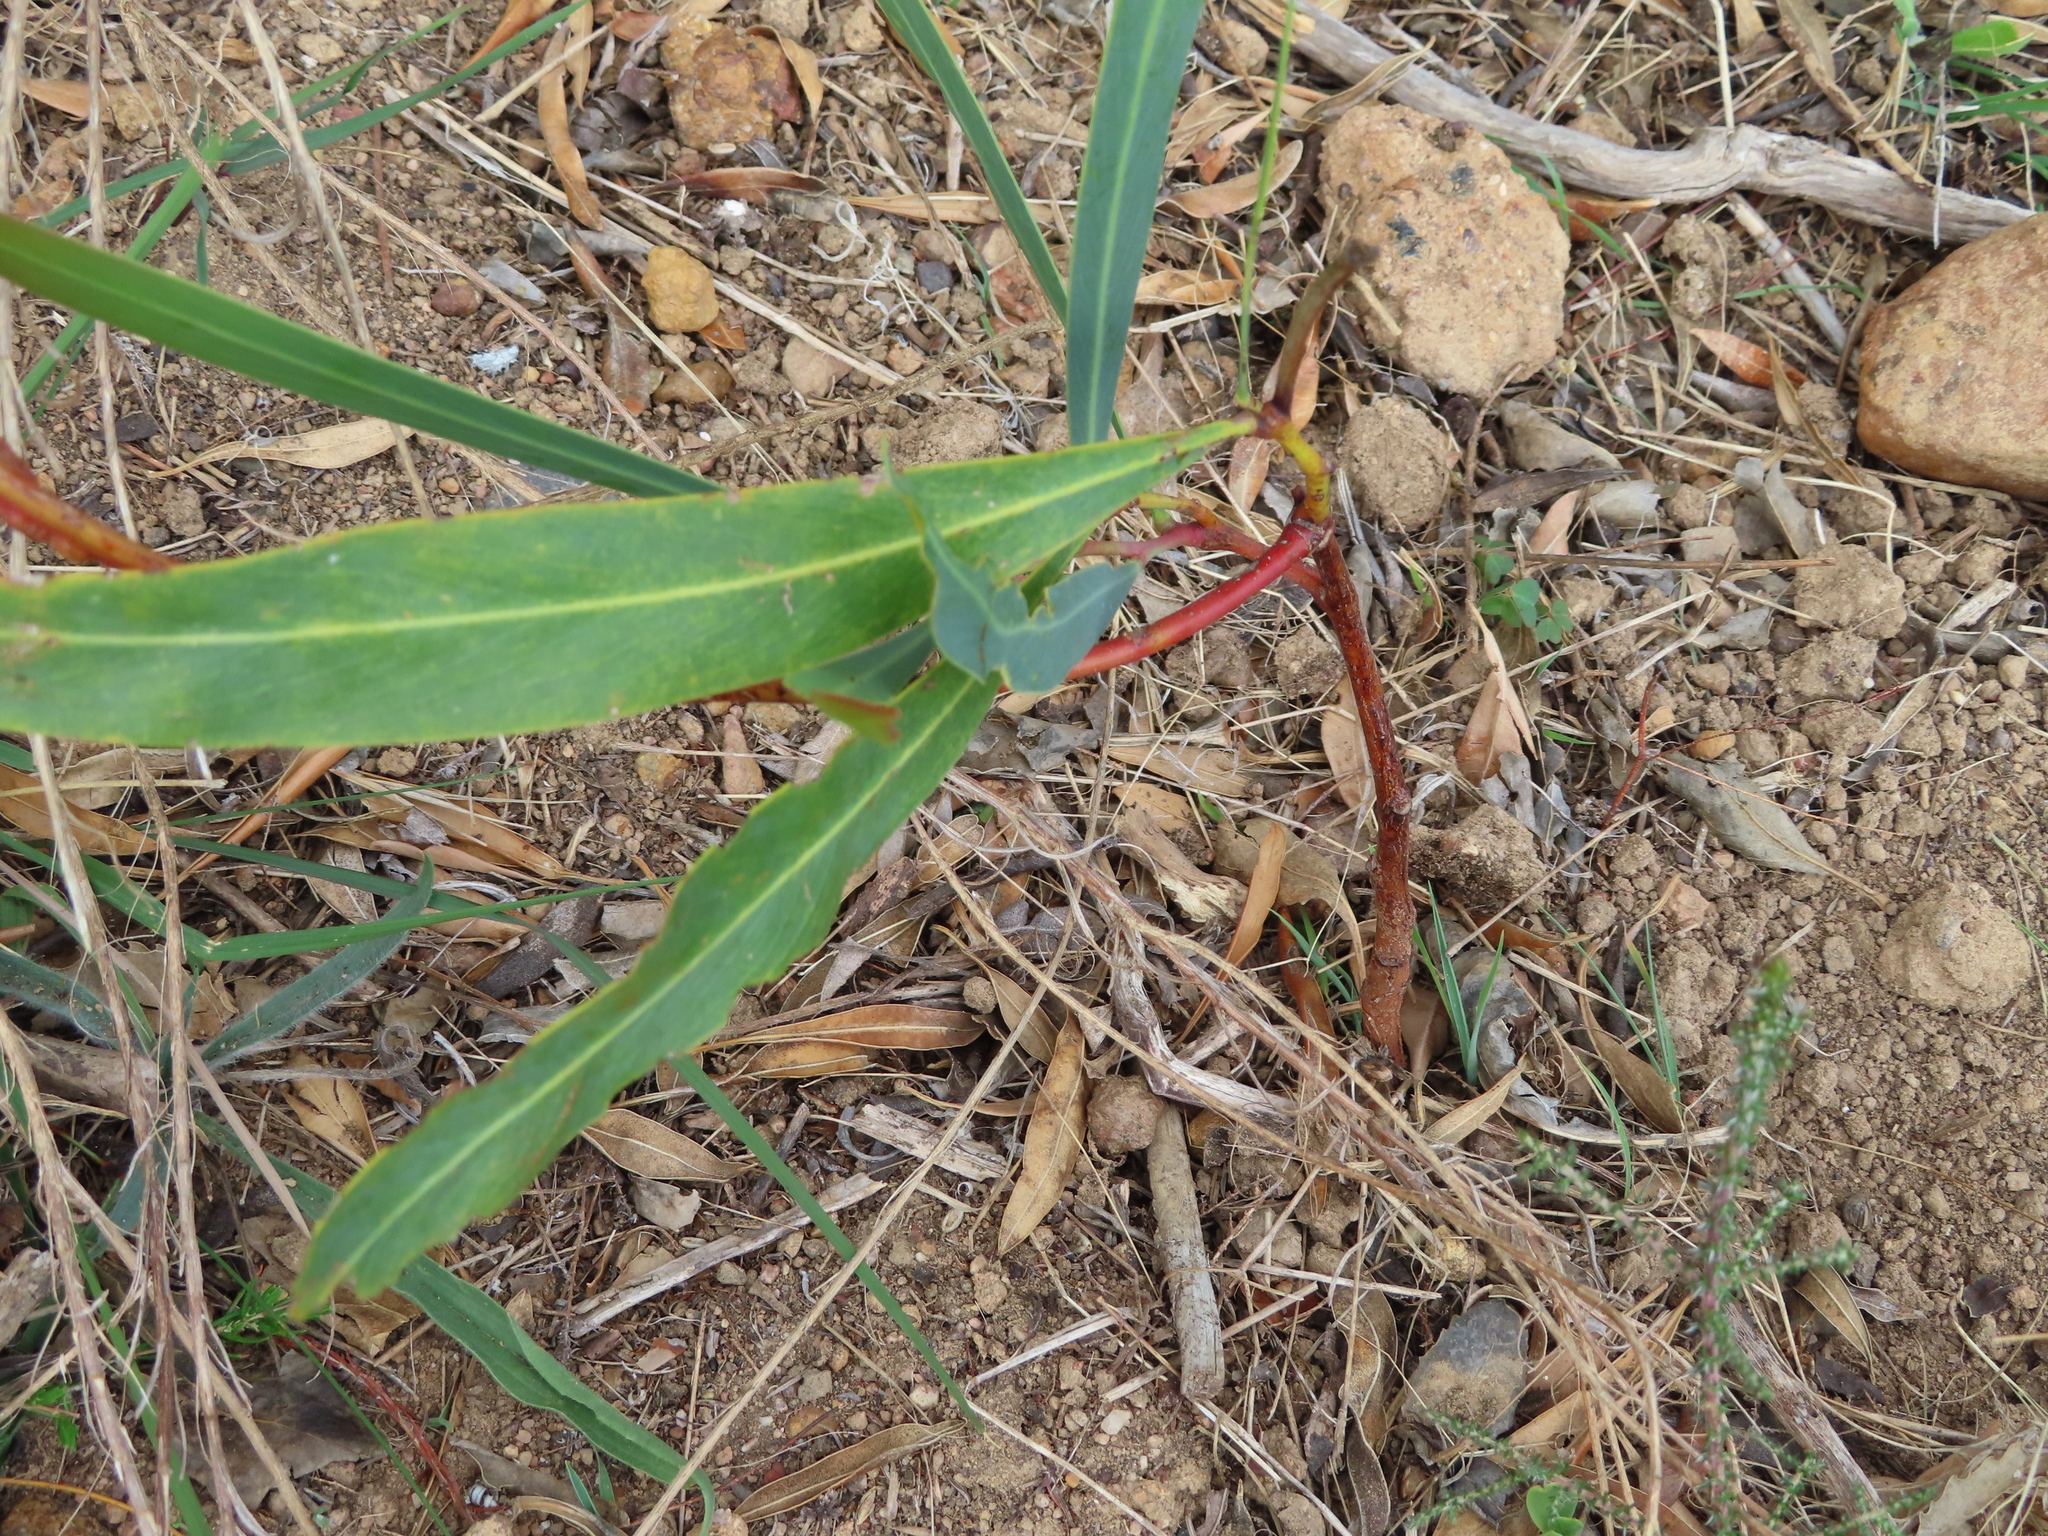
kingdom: Plantae
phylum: Tracheophyta
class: Magnoliopsida
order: Fabales
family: Fabaceae
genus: Acacia
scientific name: Acacia saligna
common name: Orange wattle
